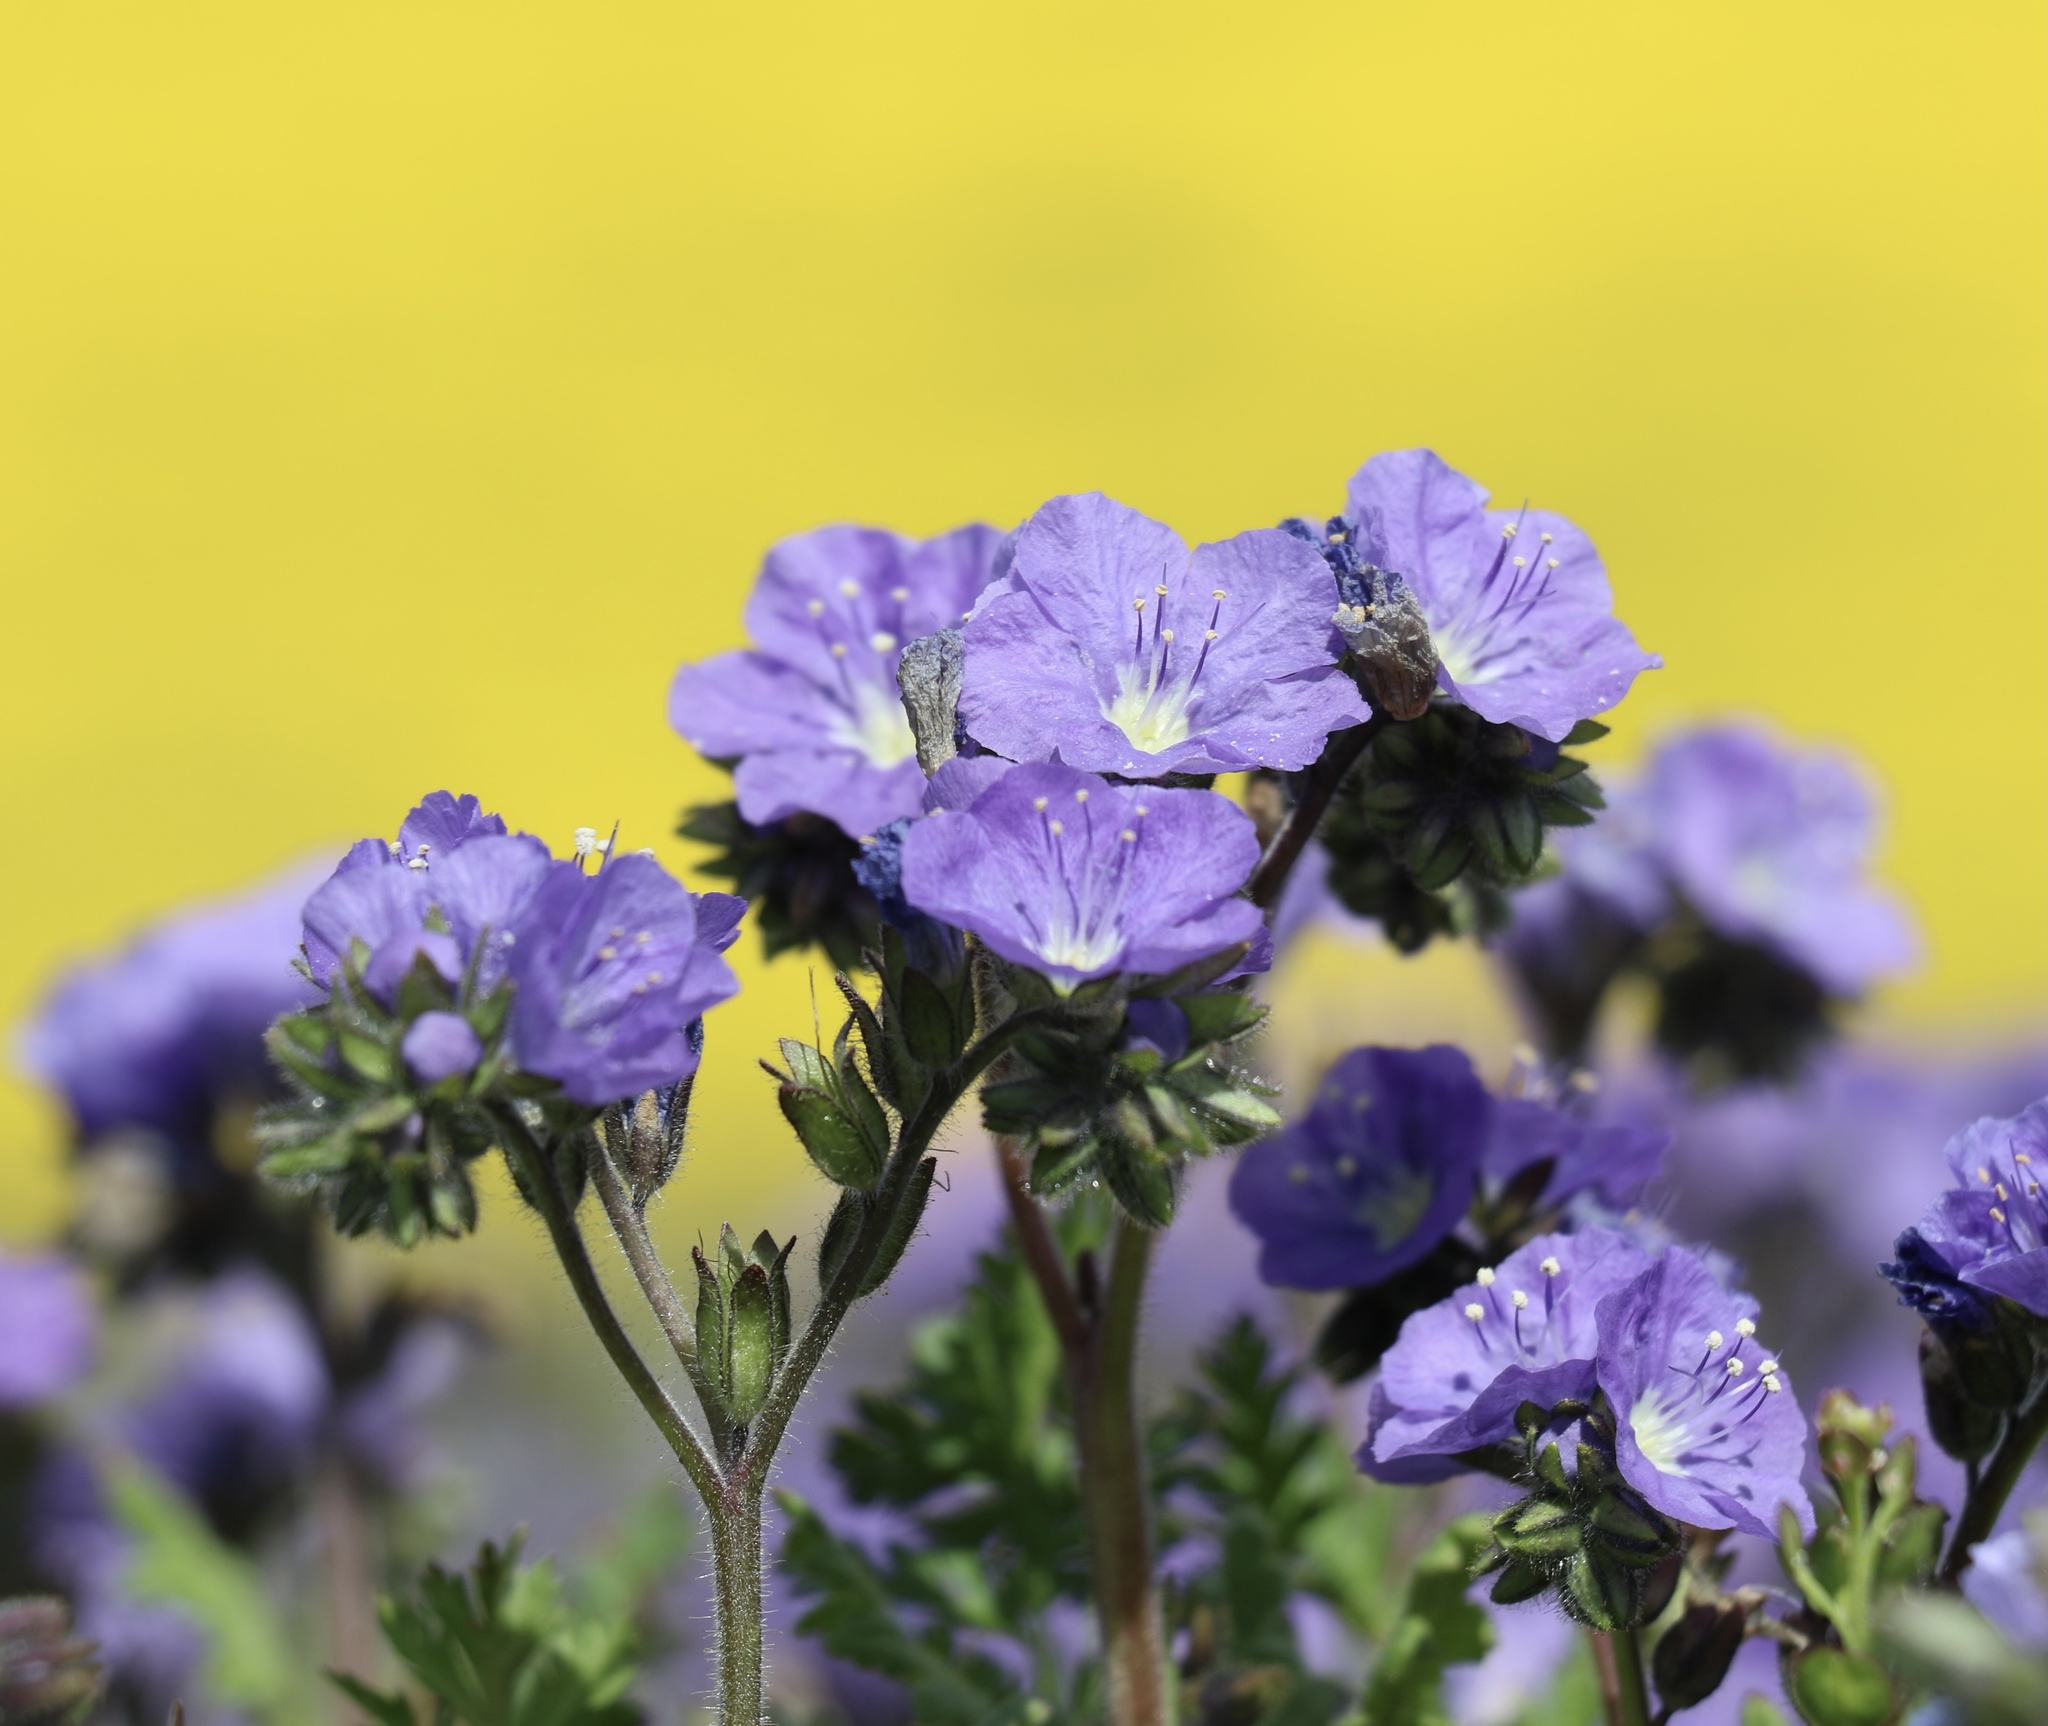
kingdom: Plantae
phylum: Tracheophyta
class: Magnoliopsida
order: Boraginales
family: Hydrophyllaceae
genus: Phacelia
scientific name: Phacelia ciliata
